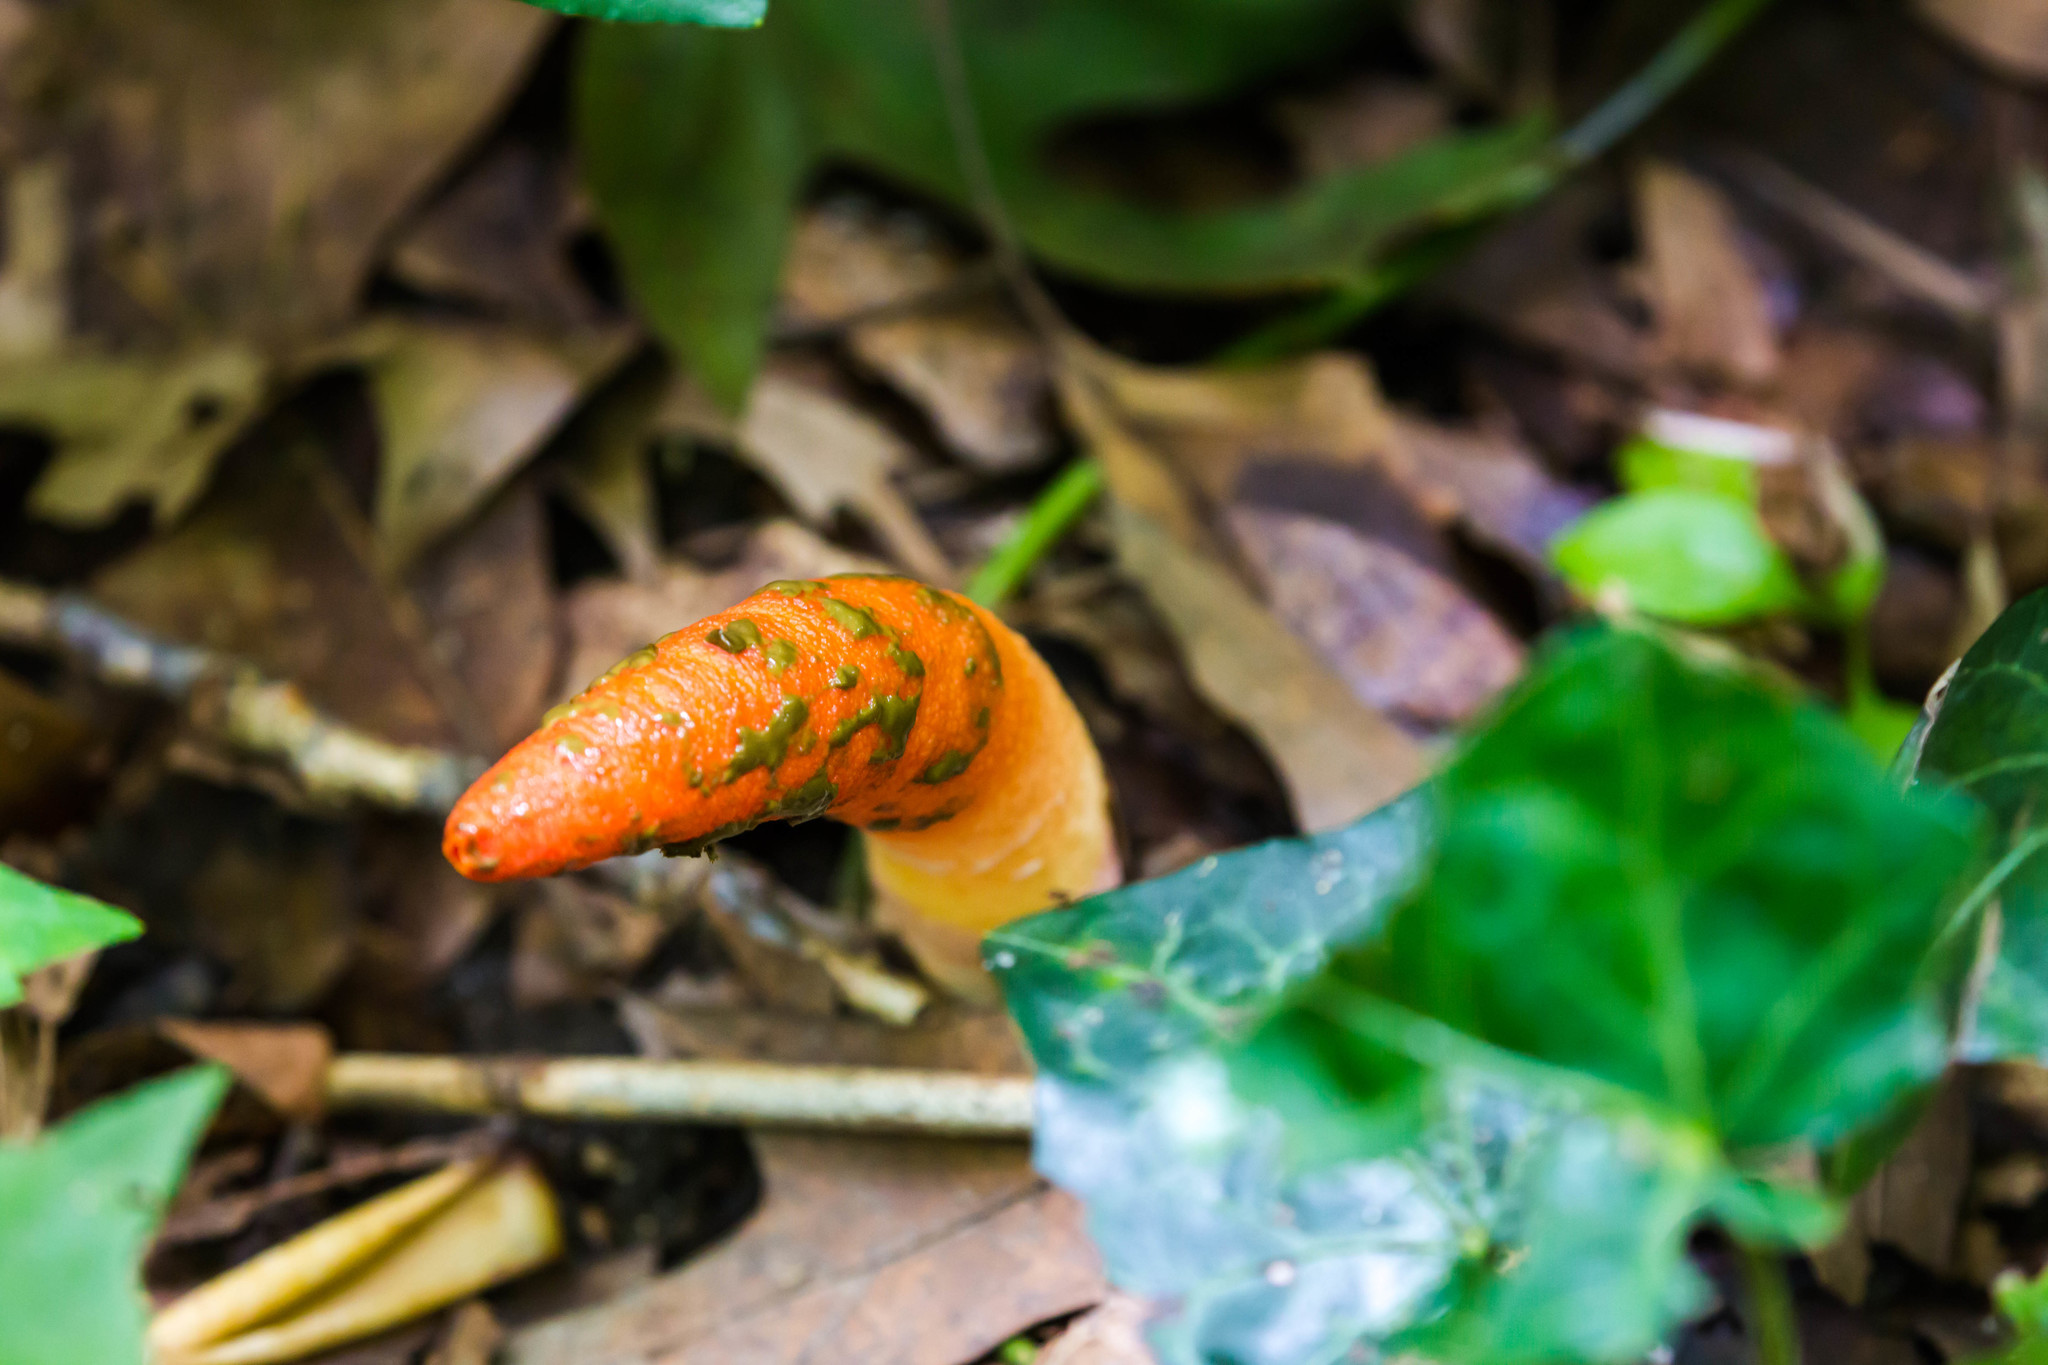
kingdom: Fungi
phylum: Basidiomycota
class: Agaricomycetes
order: Phallales
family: Phallaceae
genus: Mutinus
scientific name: Mutinus elegans
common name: Devil's dipstick
